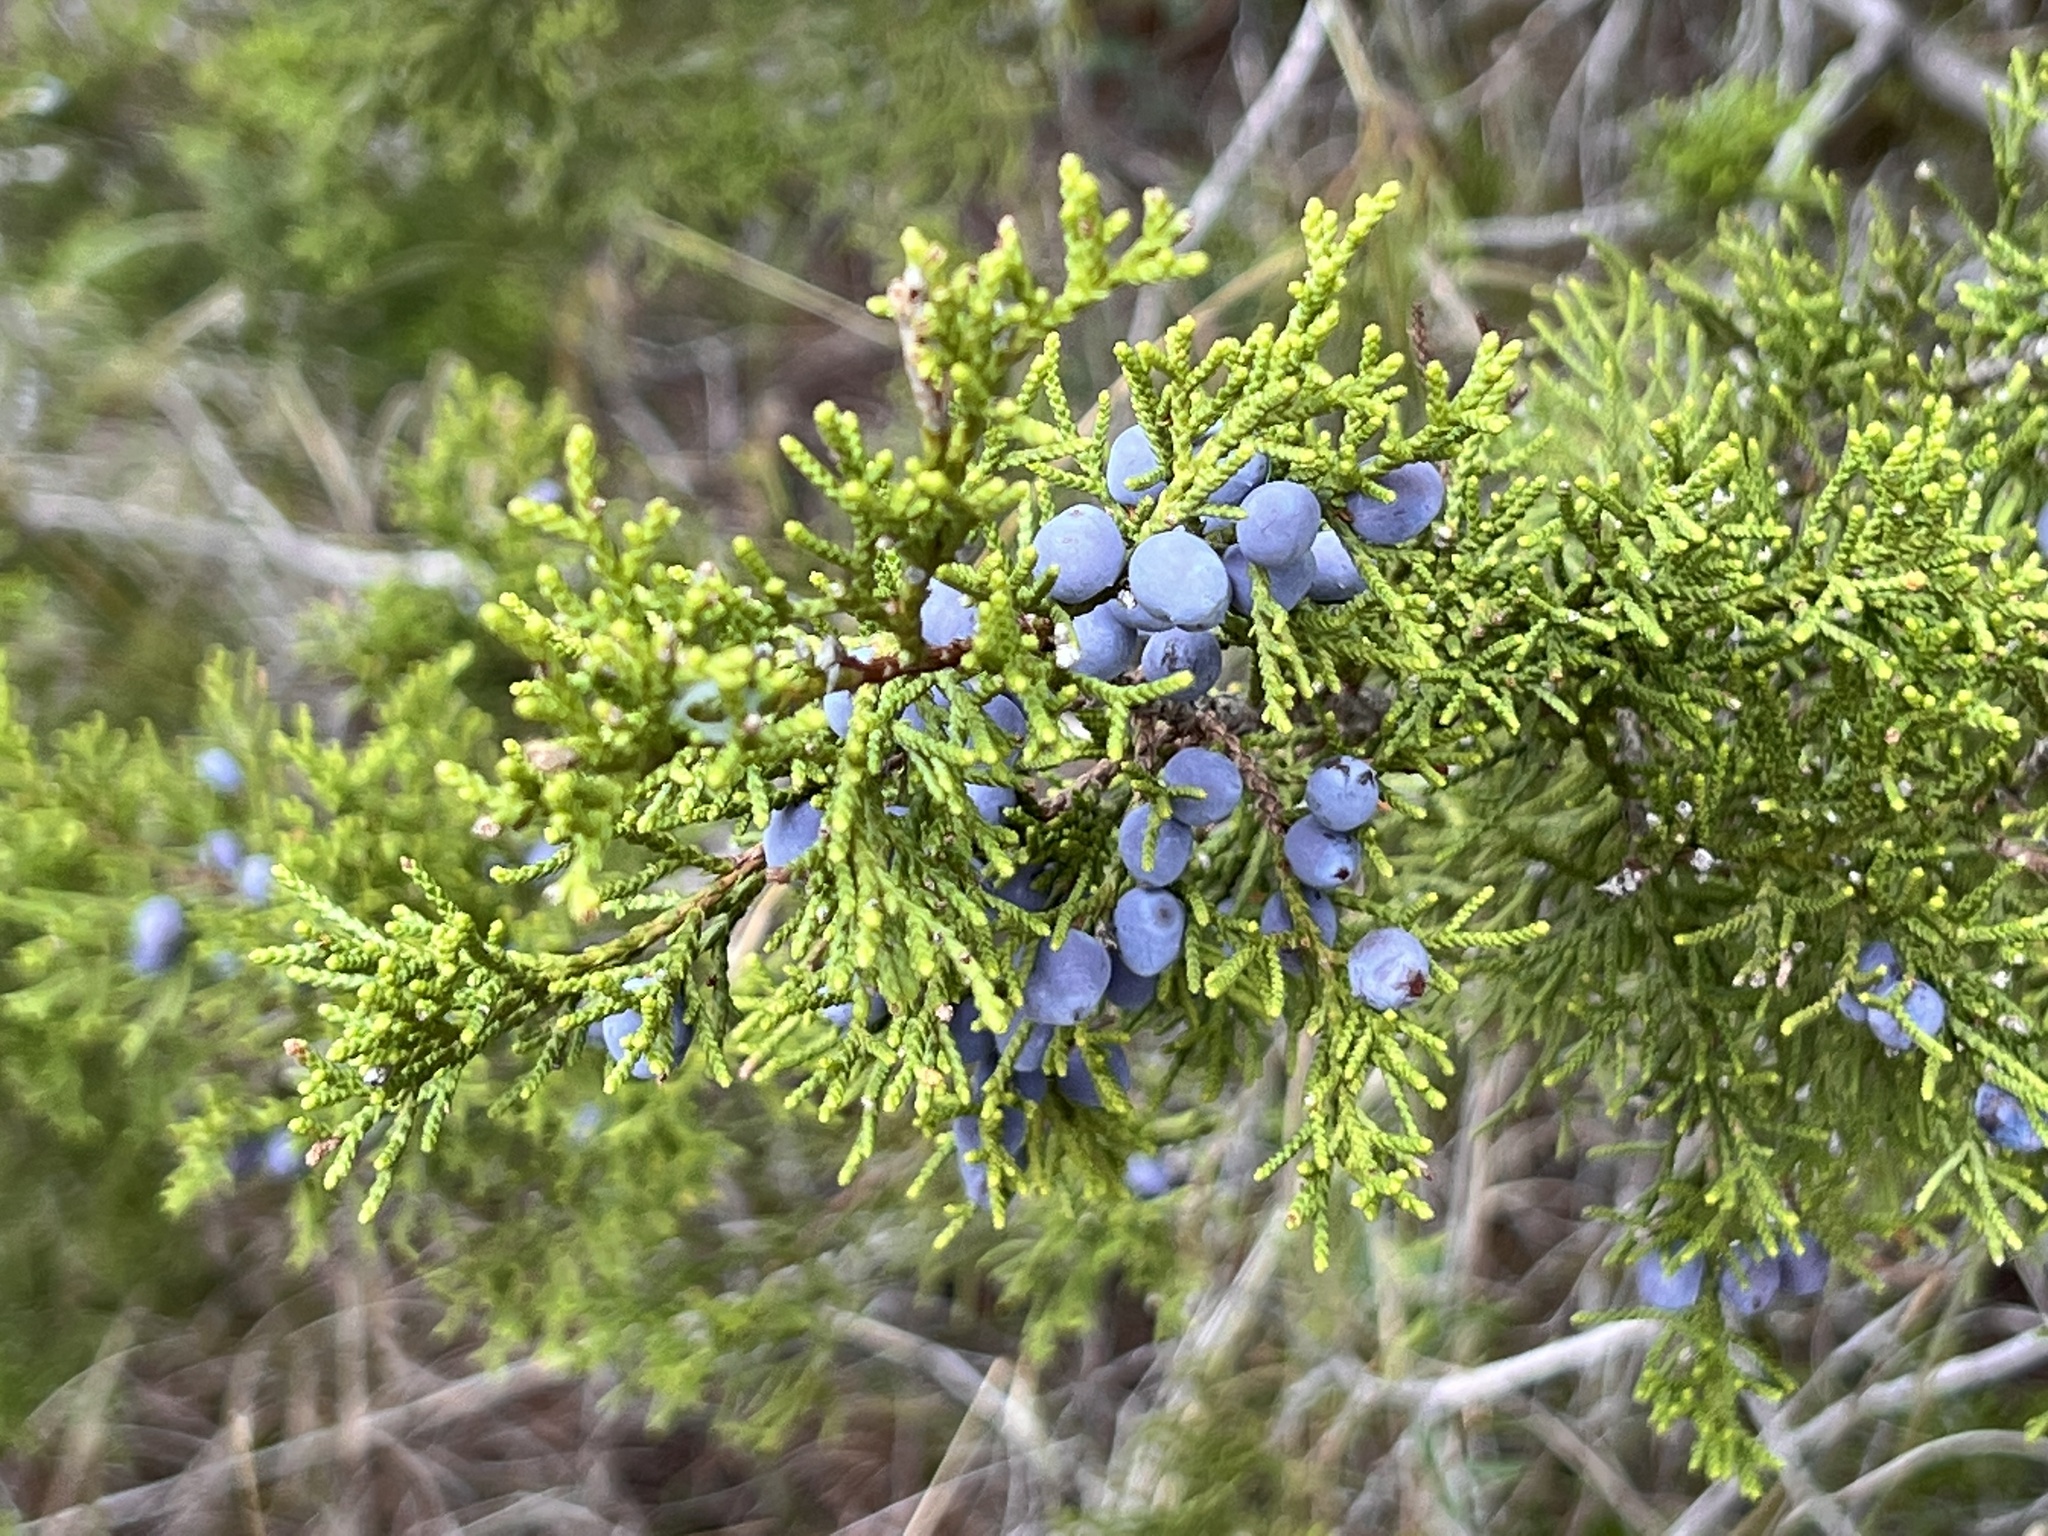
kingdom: Plantae
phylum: Tracheophyta
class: Pinopsida
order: Pinales
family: Cupressaceae
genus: Juniperus
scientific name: Juniperus ashei
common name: Mexican juniper
